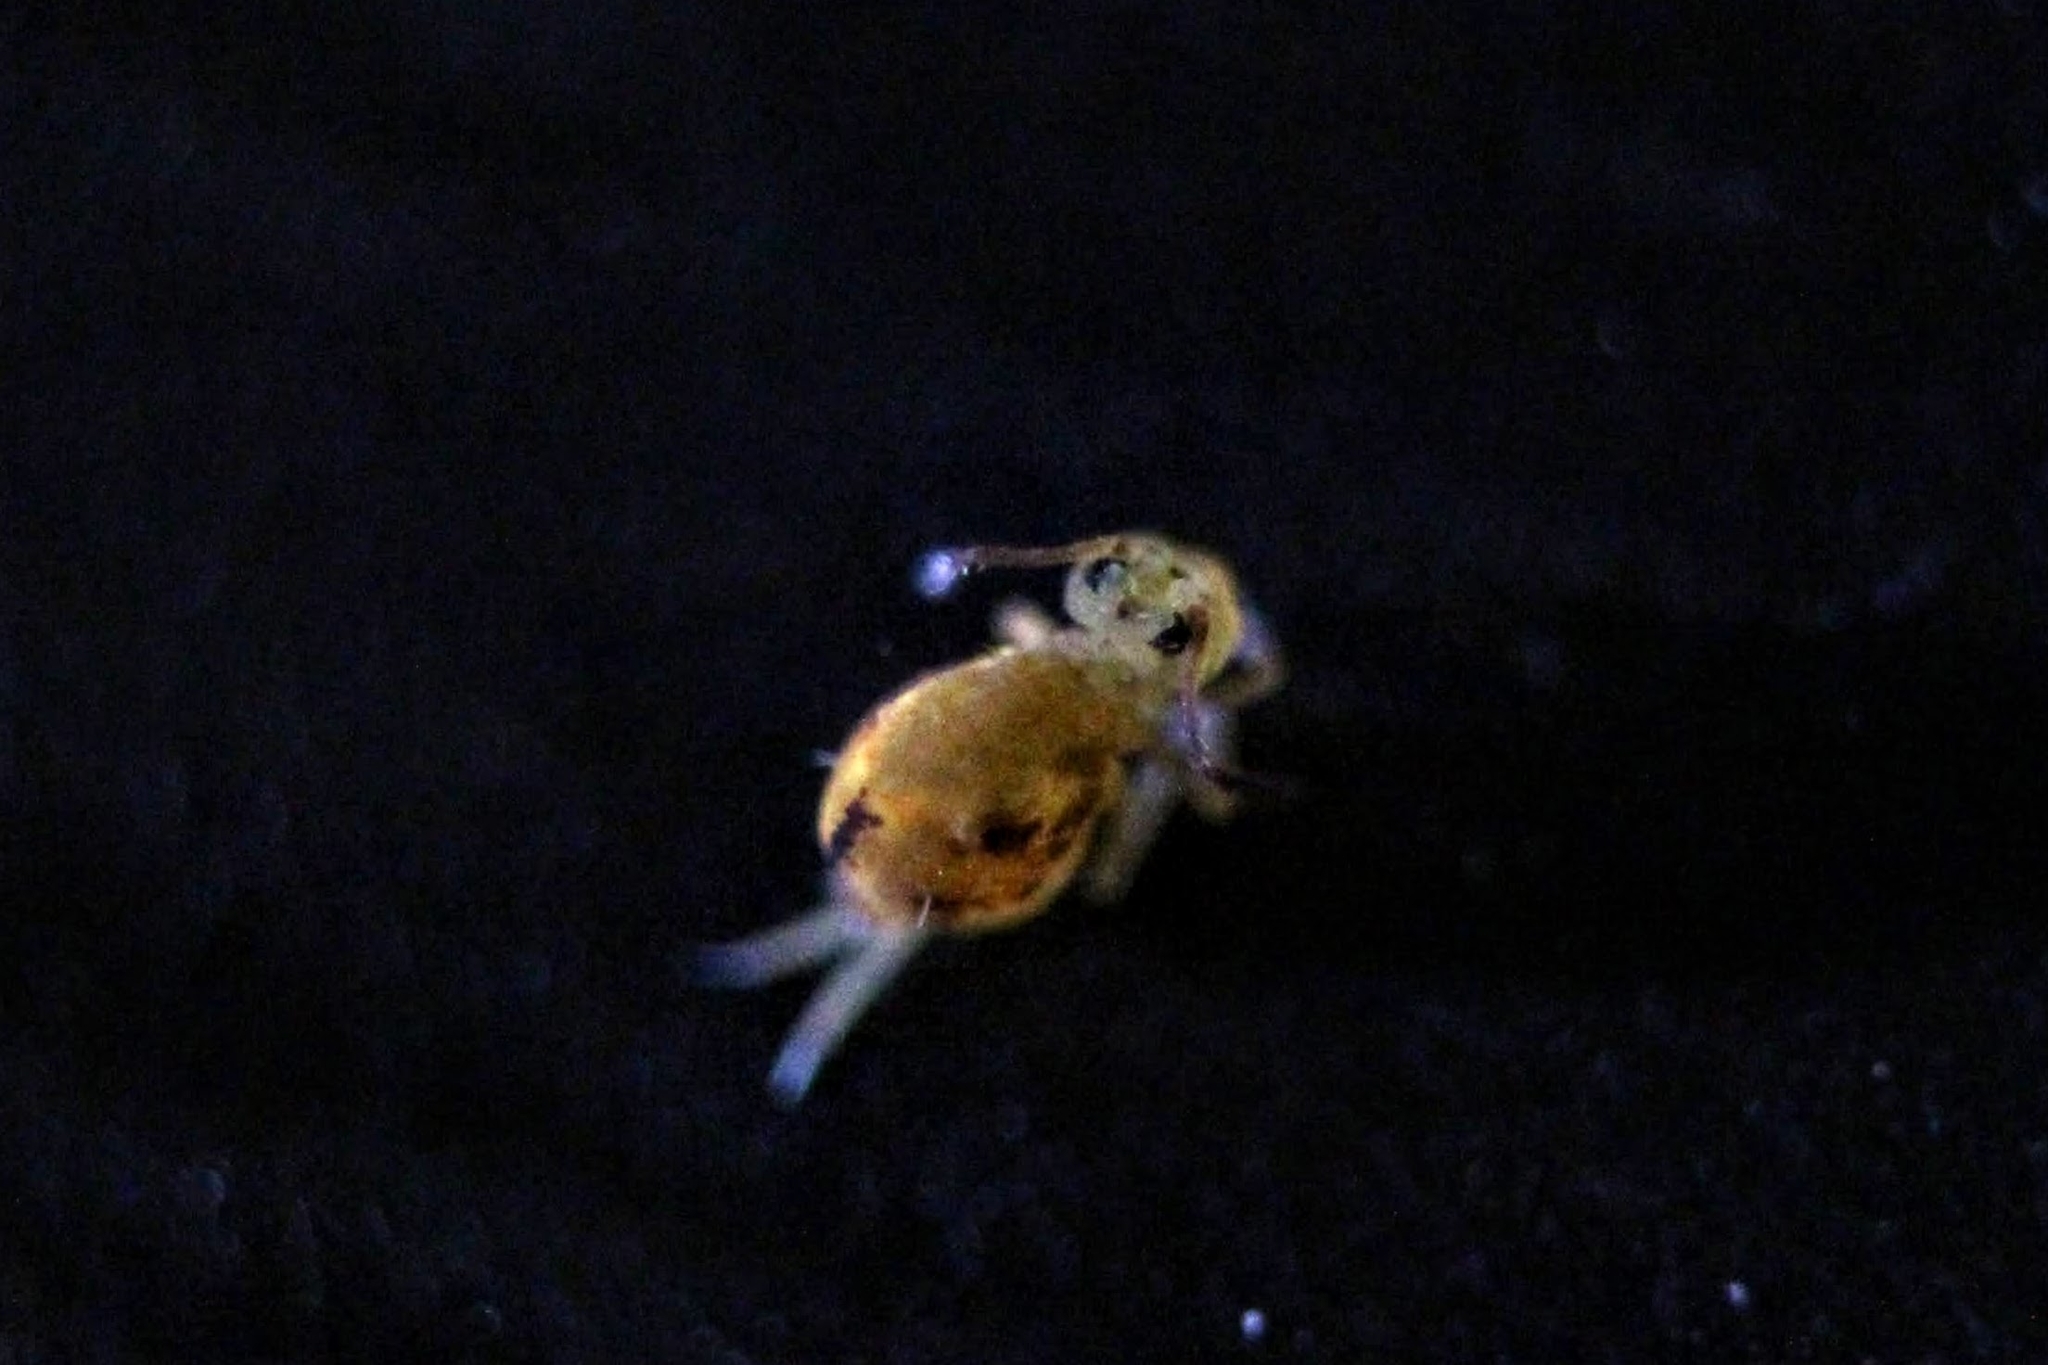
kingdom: Animalia
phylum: Arthropoda
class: Collembola
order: Symphypleona
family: Dicyrtomidae
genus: Dicyrtomina
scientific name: Dicyrtomina minuta
